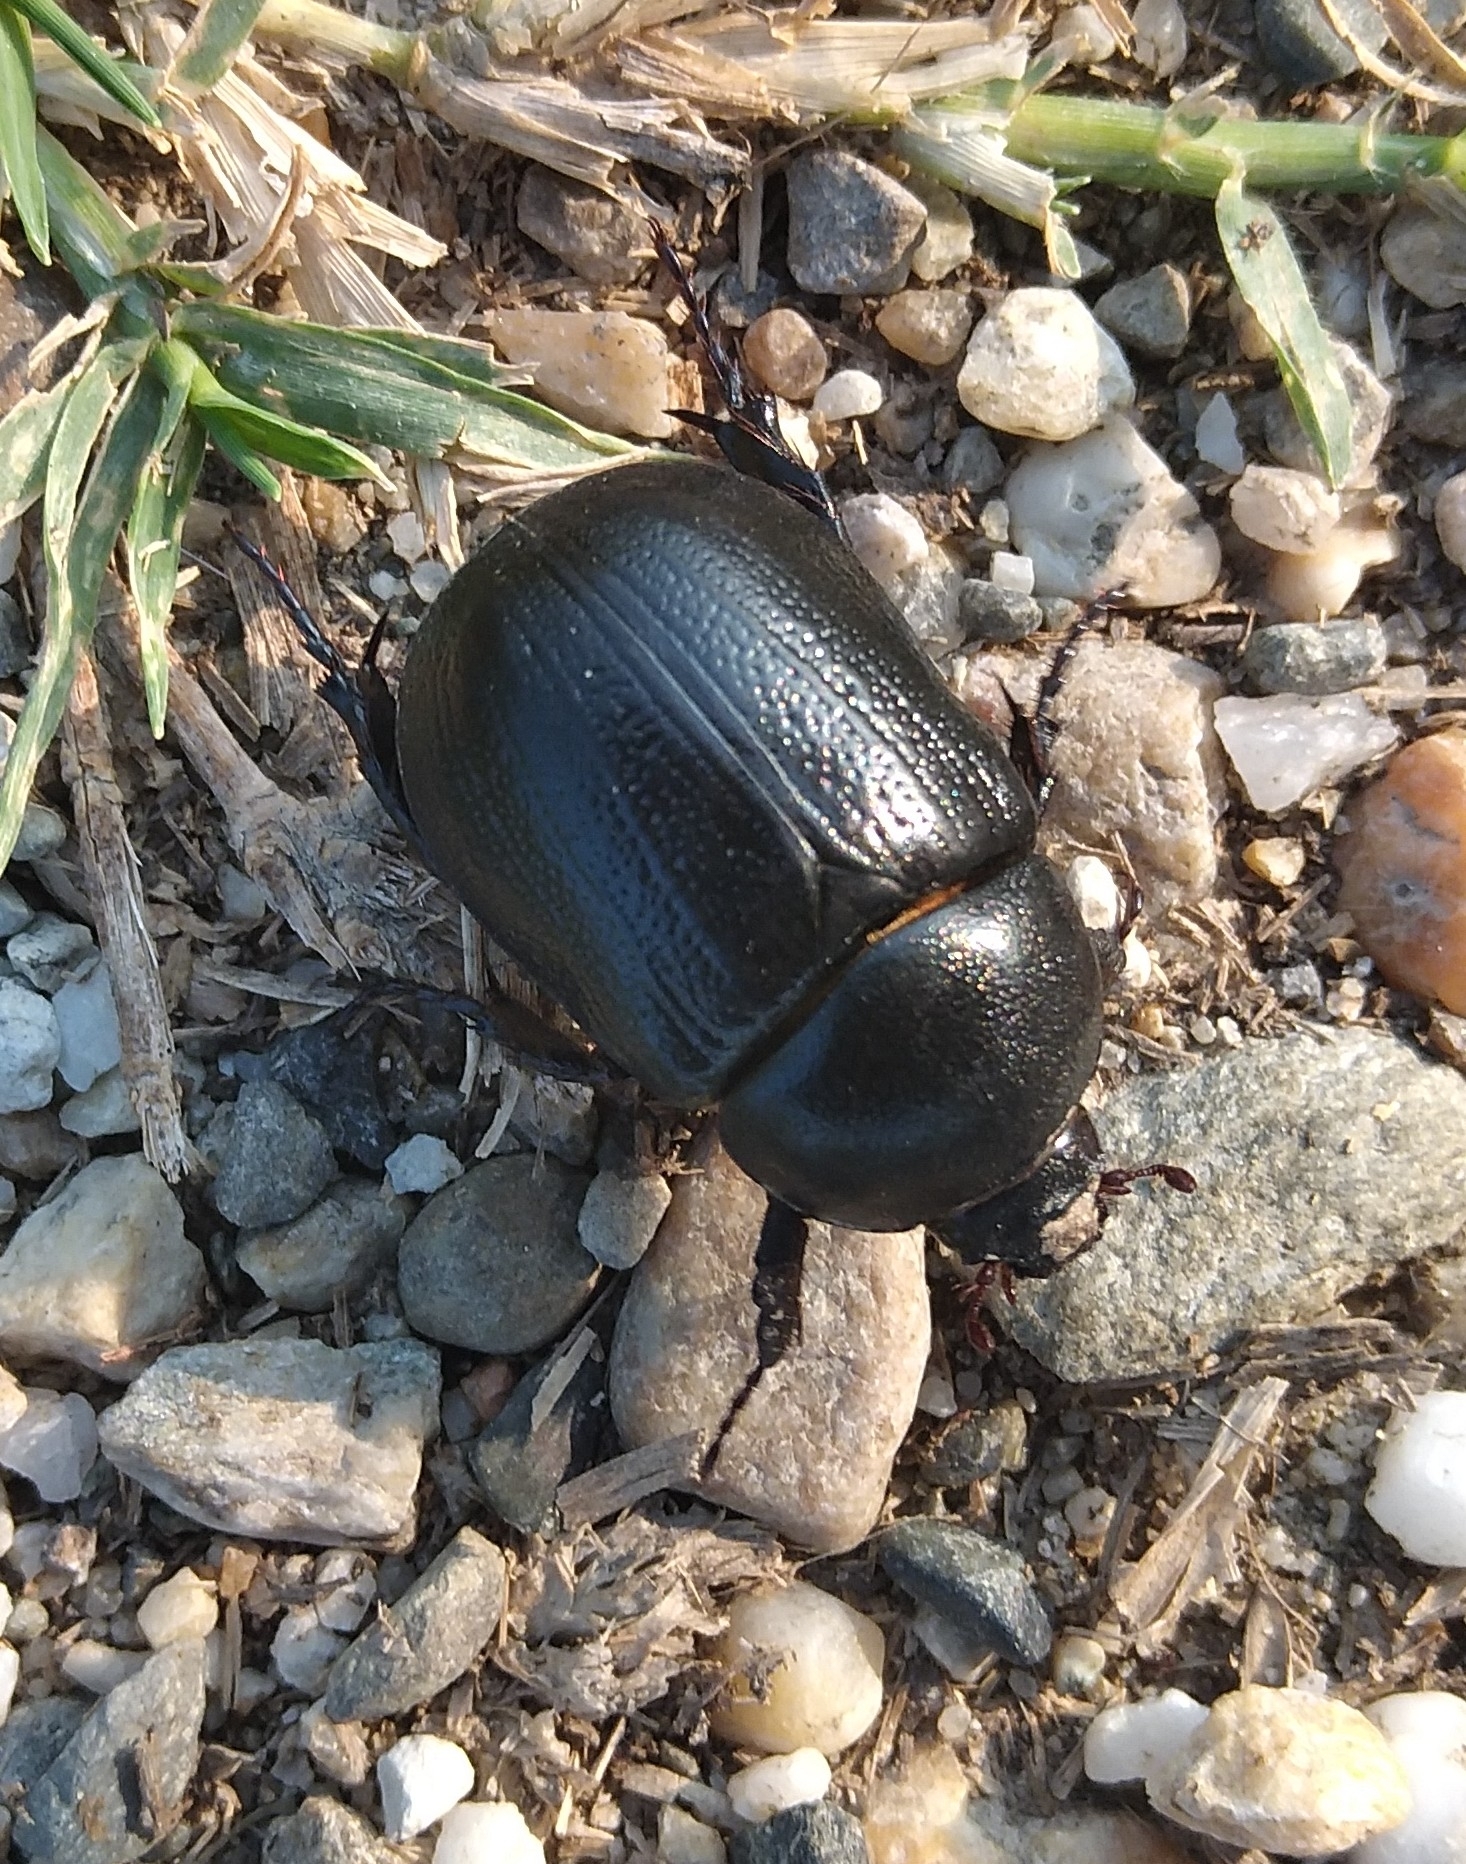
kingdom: Animalia
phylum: Arthropoda
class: Insecta
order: Coleoptera
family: Scarabaeidae
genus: Pentodon
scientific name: Pentodon bidens
